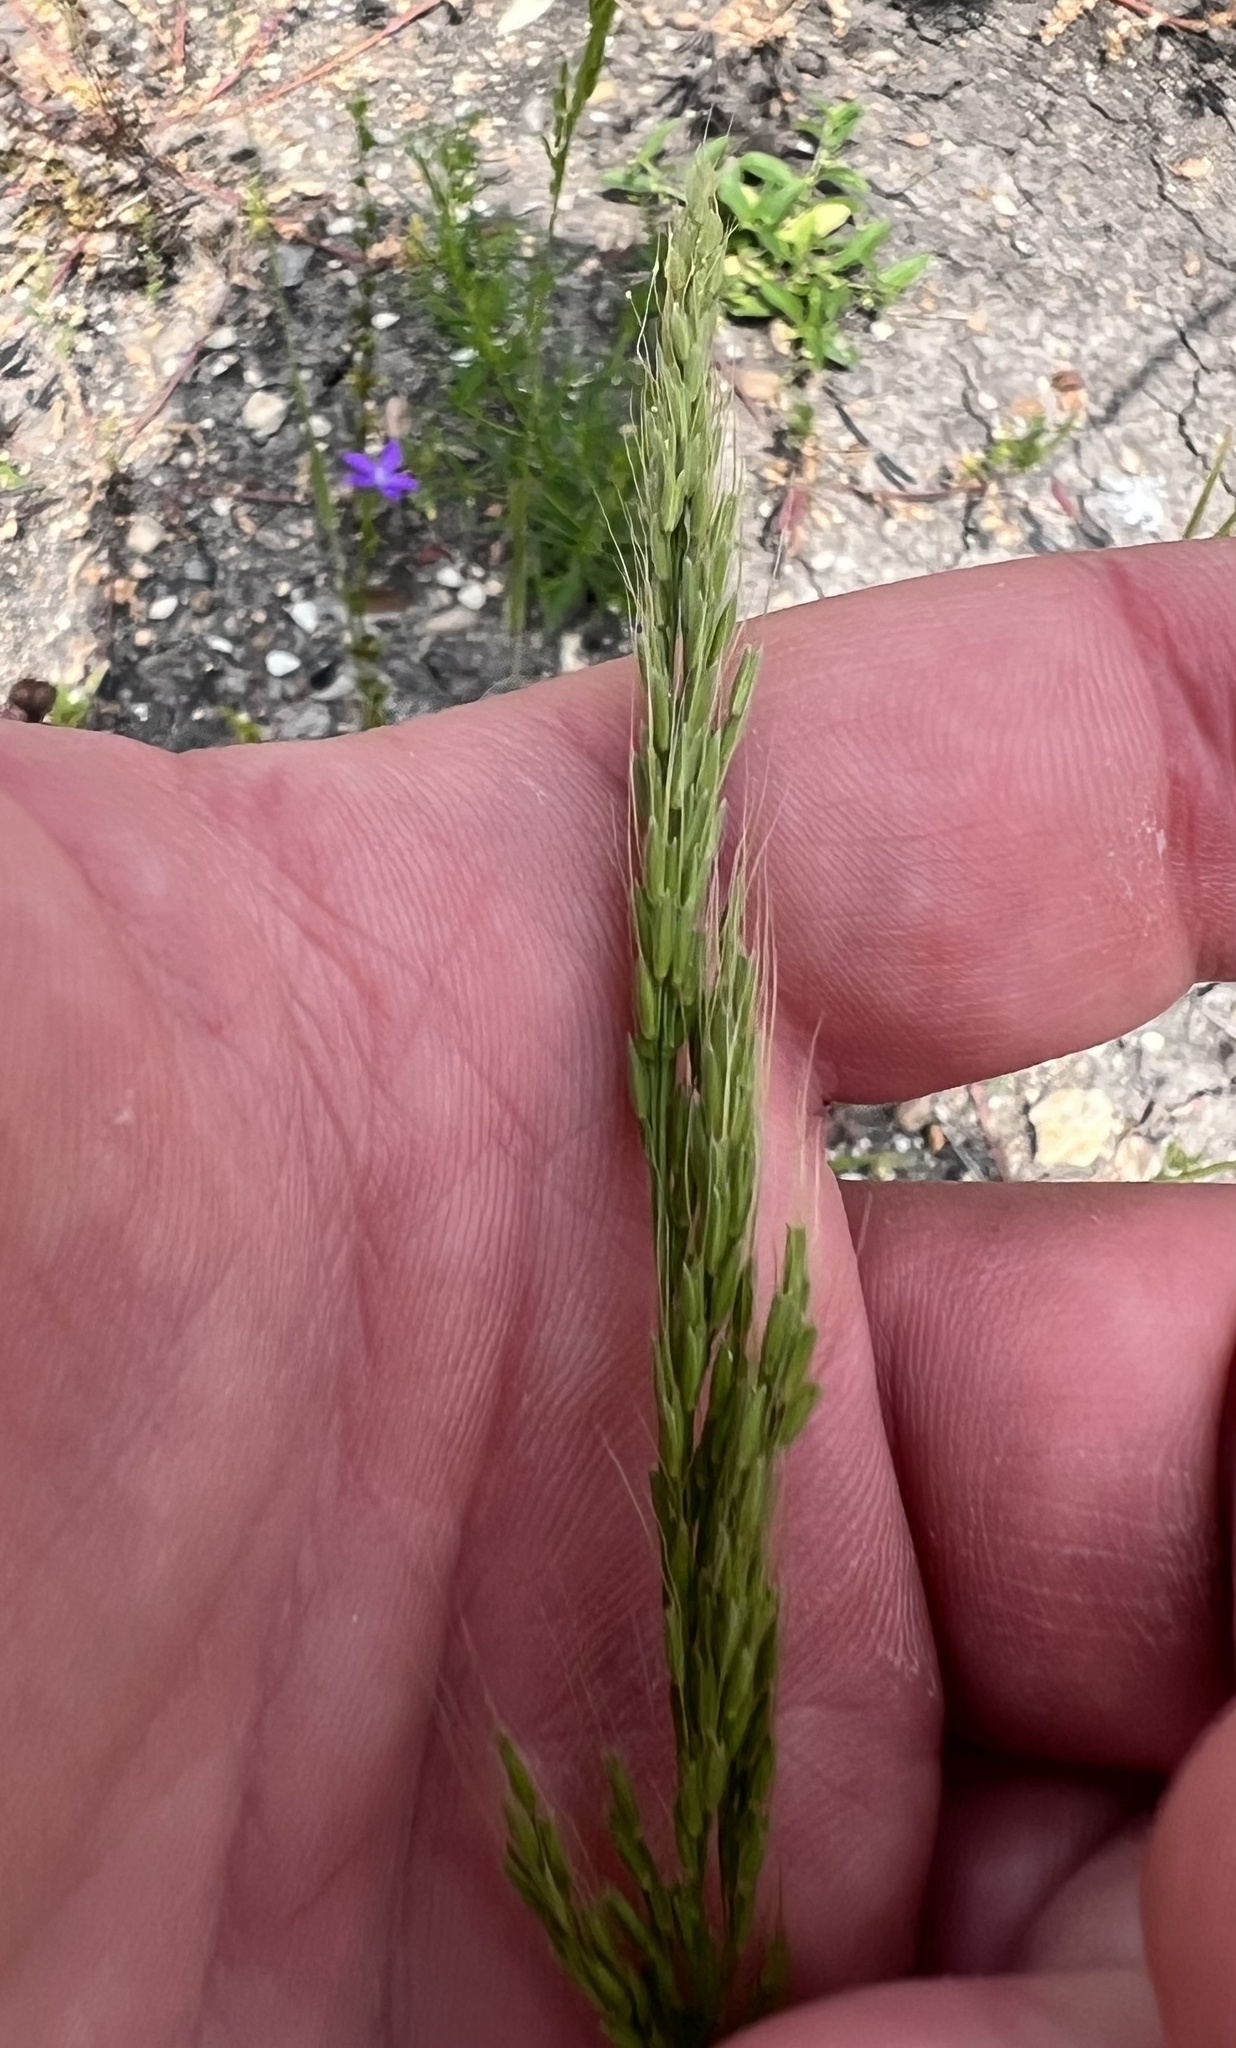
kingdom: Plantae
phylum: Tracheophyta
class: Liliopsida
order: Poales
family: Poaceae
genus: Limnodea
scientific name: Limnodea arkansana
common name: Ozark-grass
